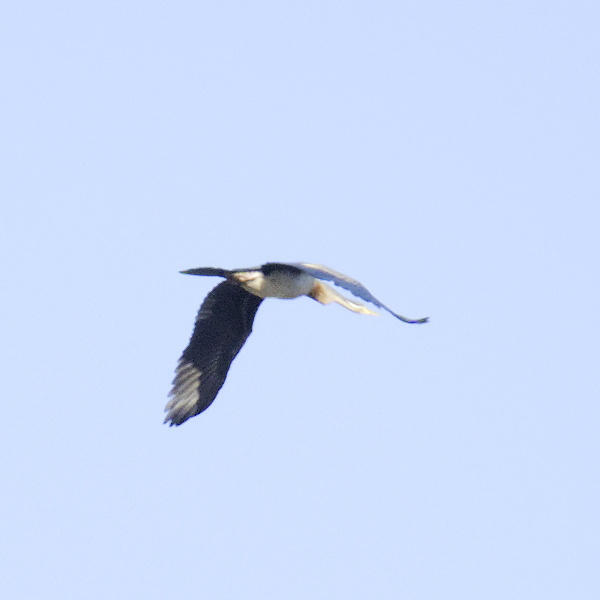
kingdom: Animalia
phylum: Chordata
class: Aves
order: Suliformes
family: Anhingidae
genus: Anhinga
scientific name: Anhinga novaehollandiae
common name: Australasian darter
